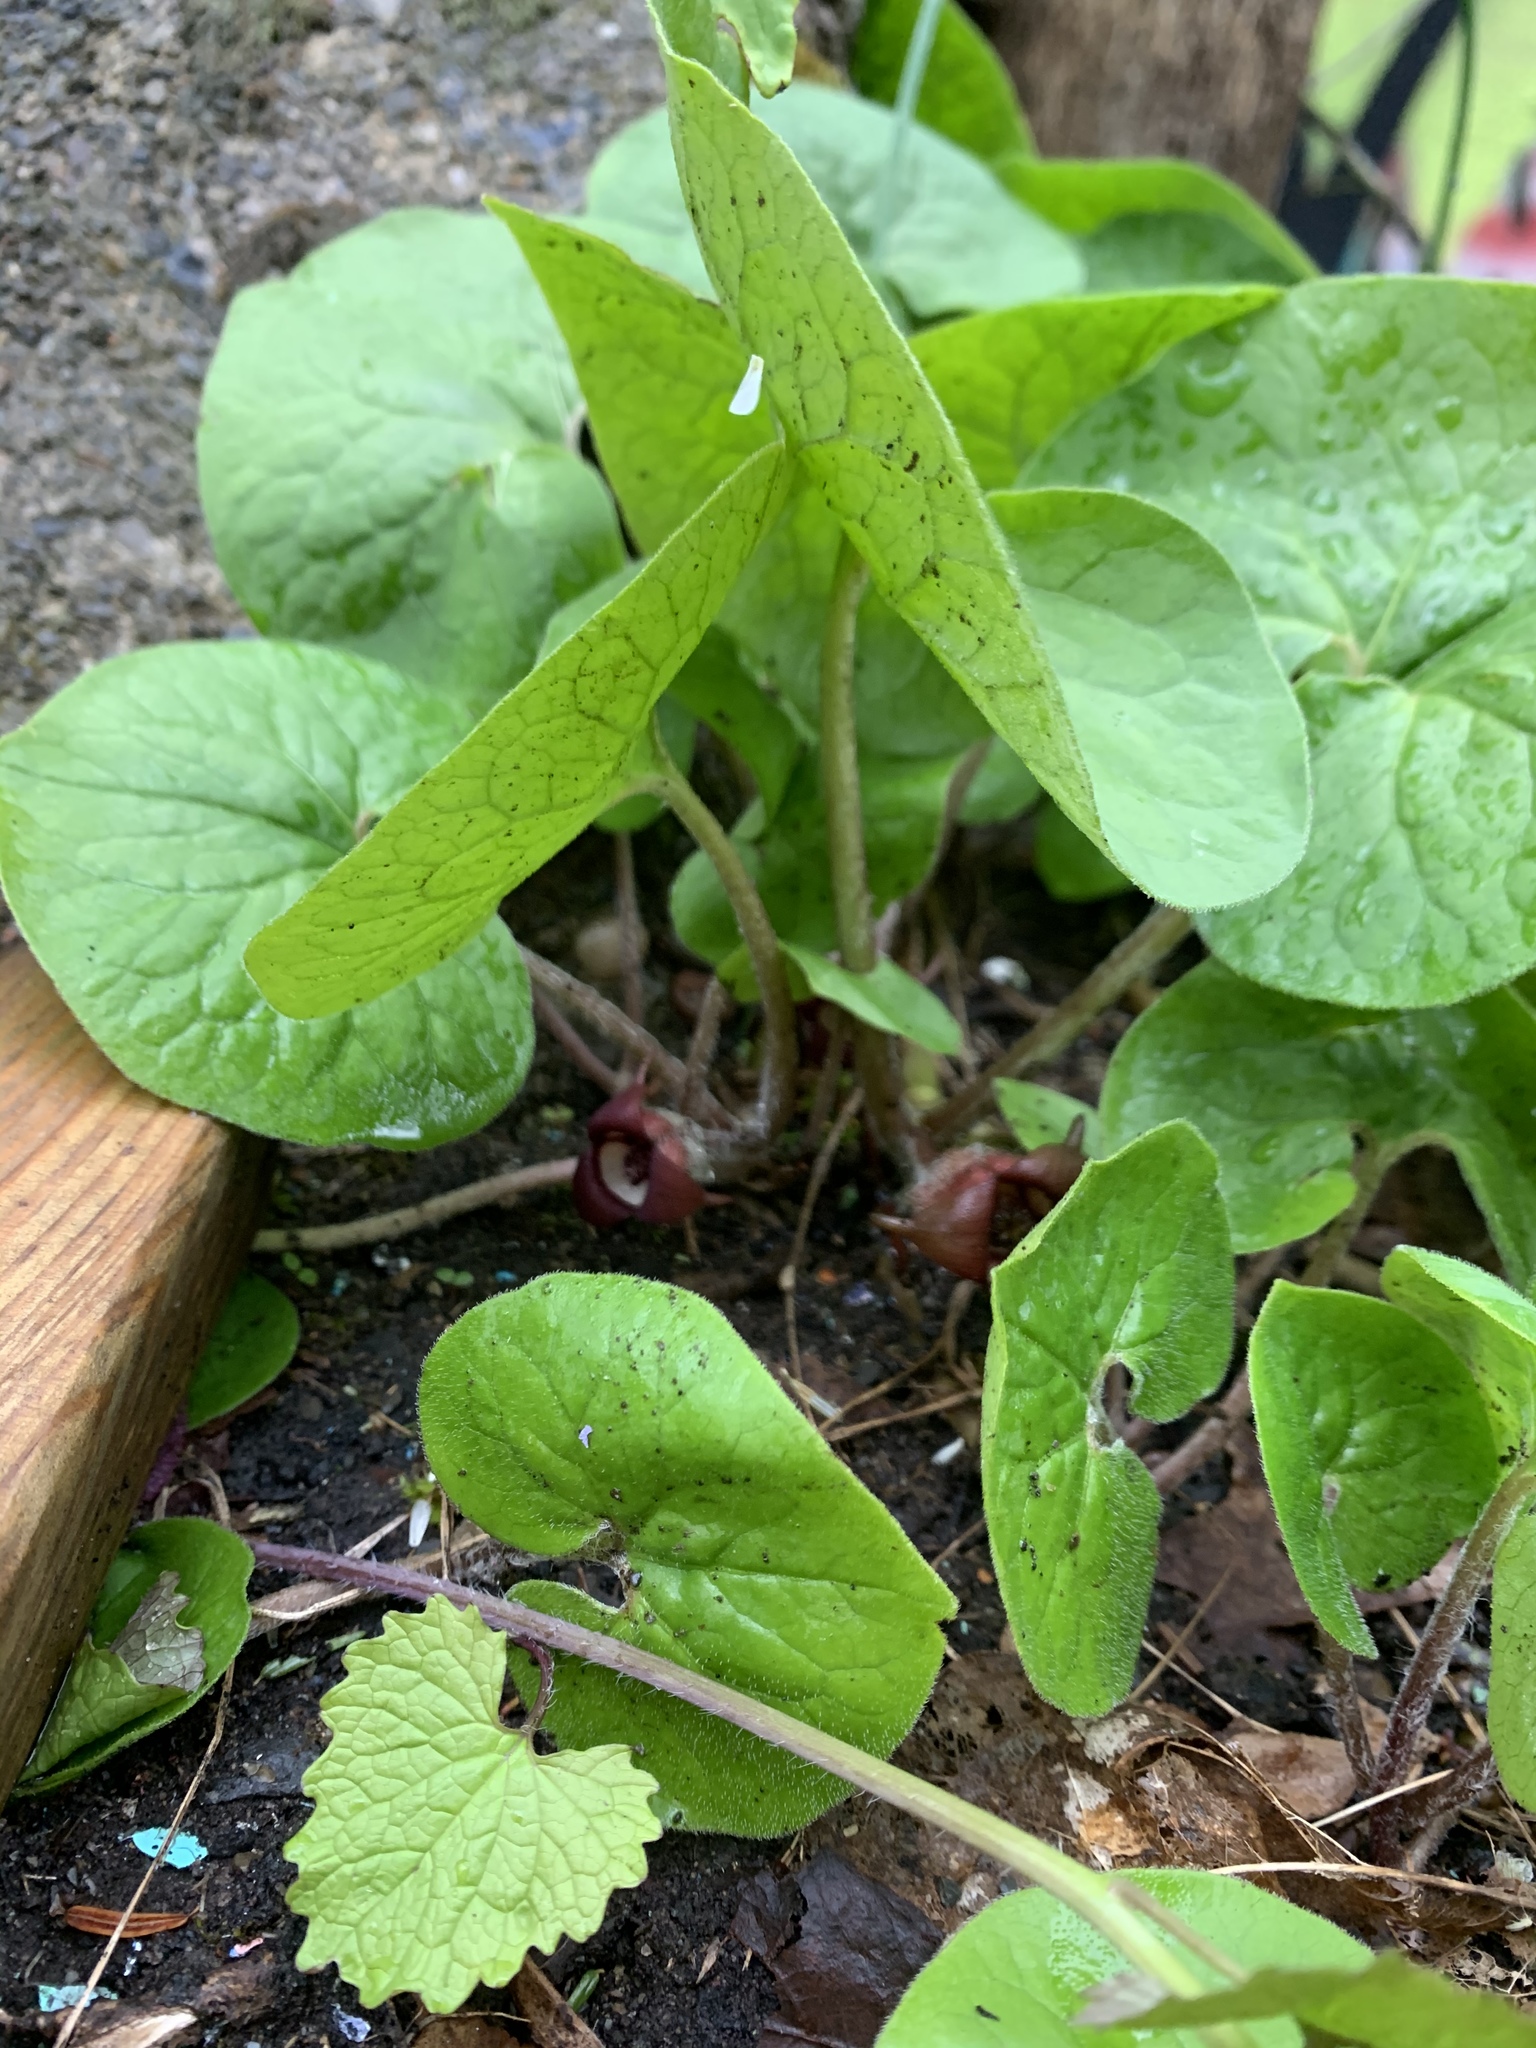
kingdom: Plantae
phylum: Tracheophyta
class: Magnoliopsida
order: Piperales
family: Aristolochiaceae
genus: Asarum
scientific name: Asarum canadense
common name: Wild ginger
